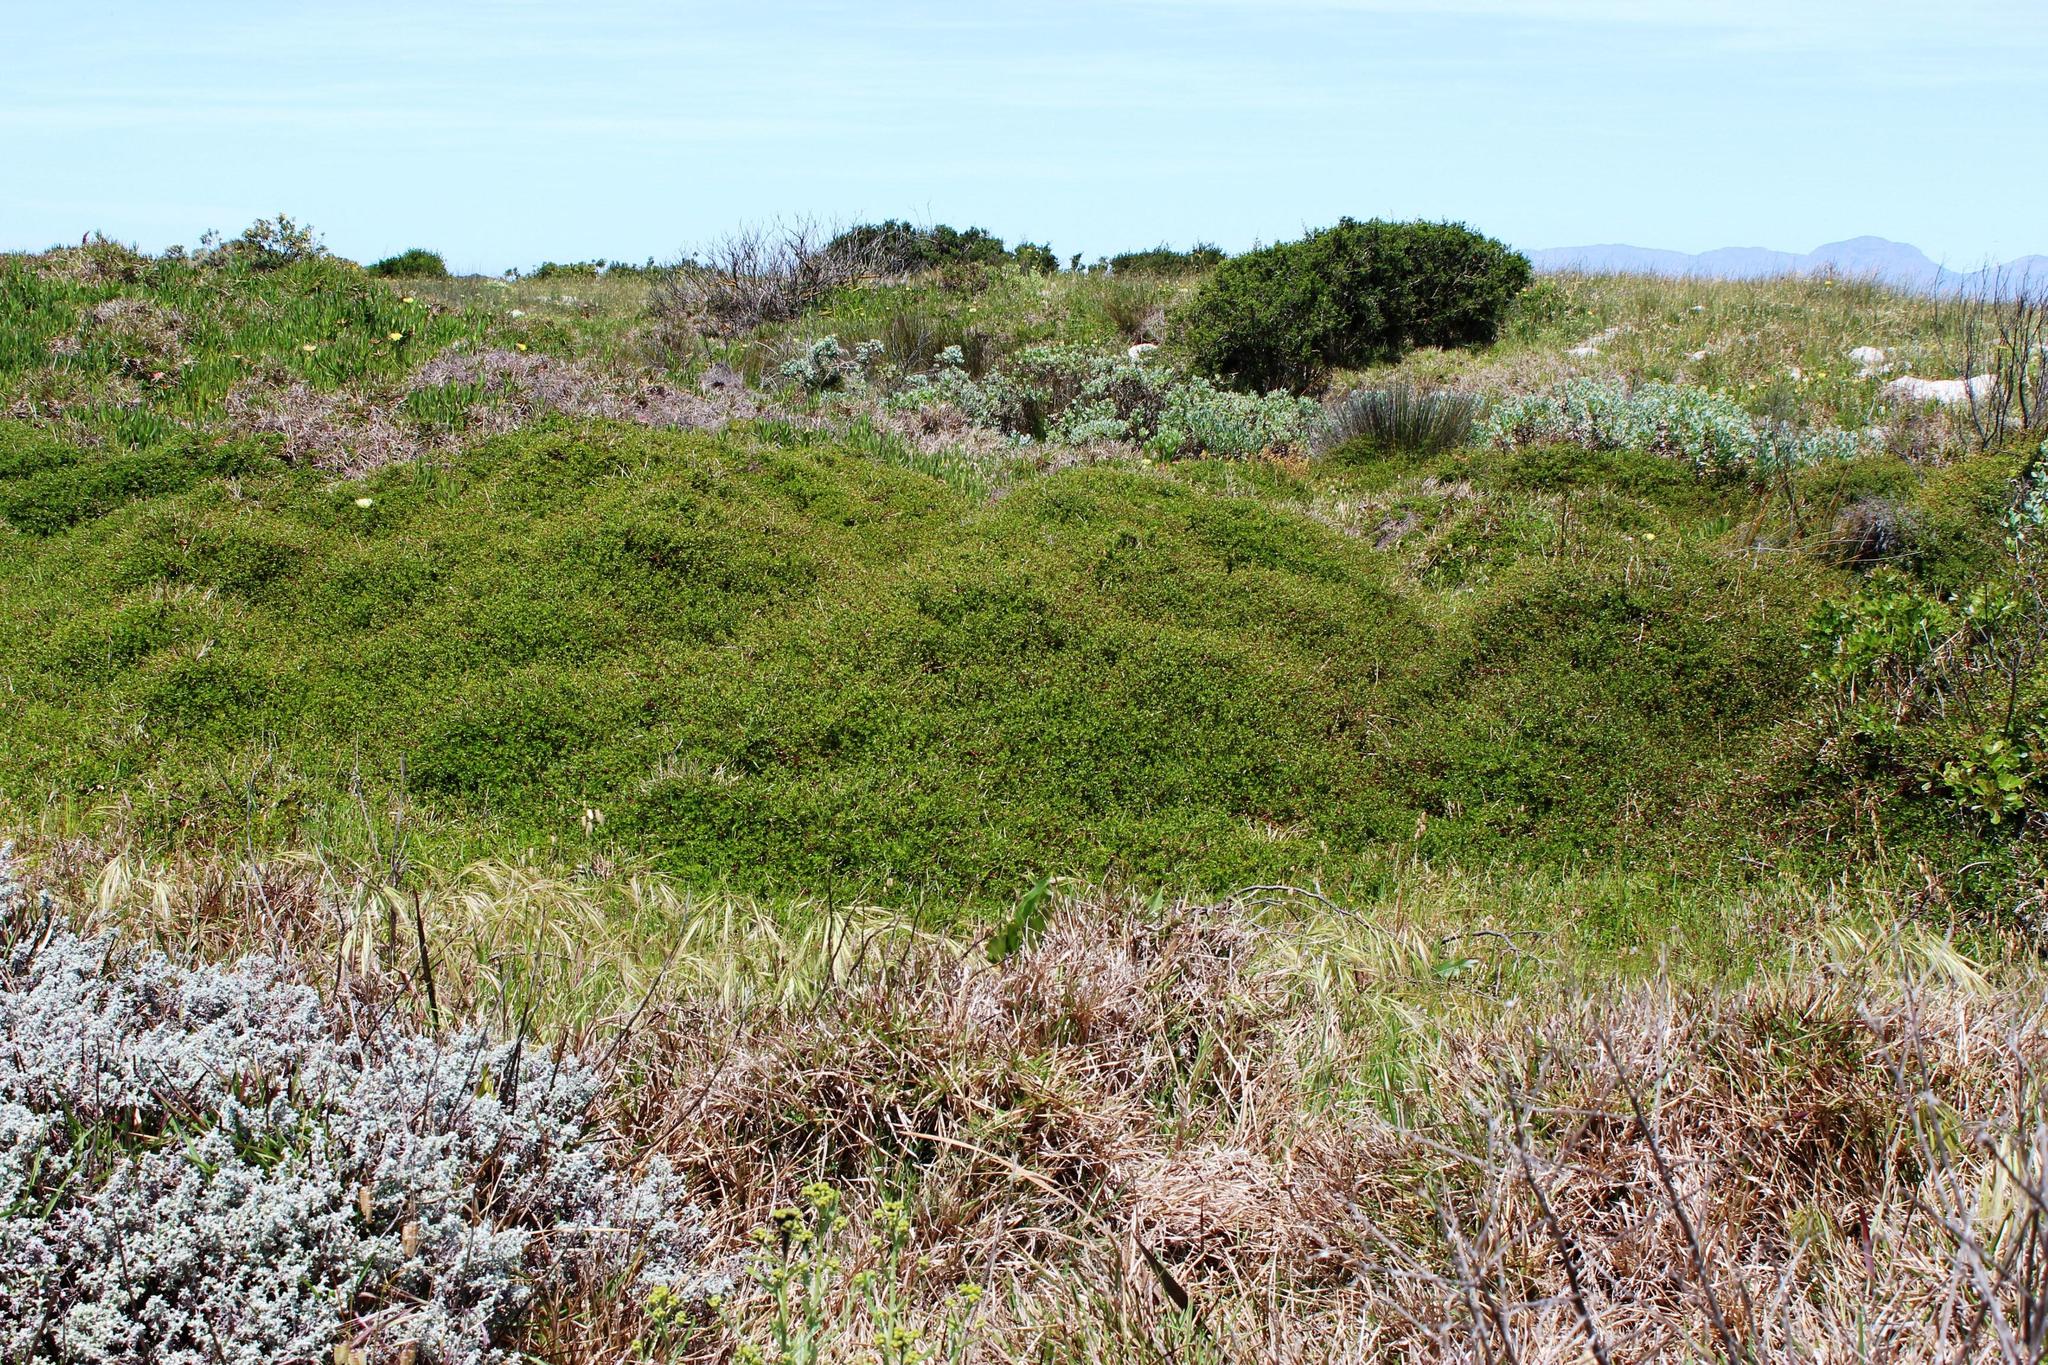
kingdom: Plantae
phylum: Tracheophyta
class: Magnoliopsida
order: Rosales
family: Rosaceae
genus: Cliffortia
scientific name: Cliffortia ferruginea
